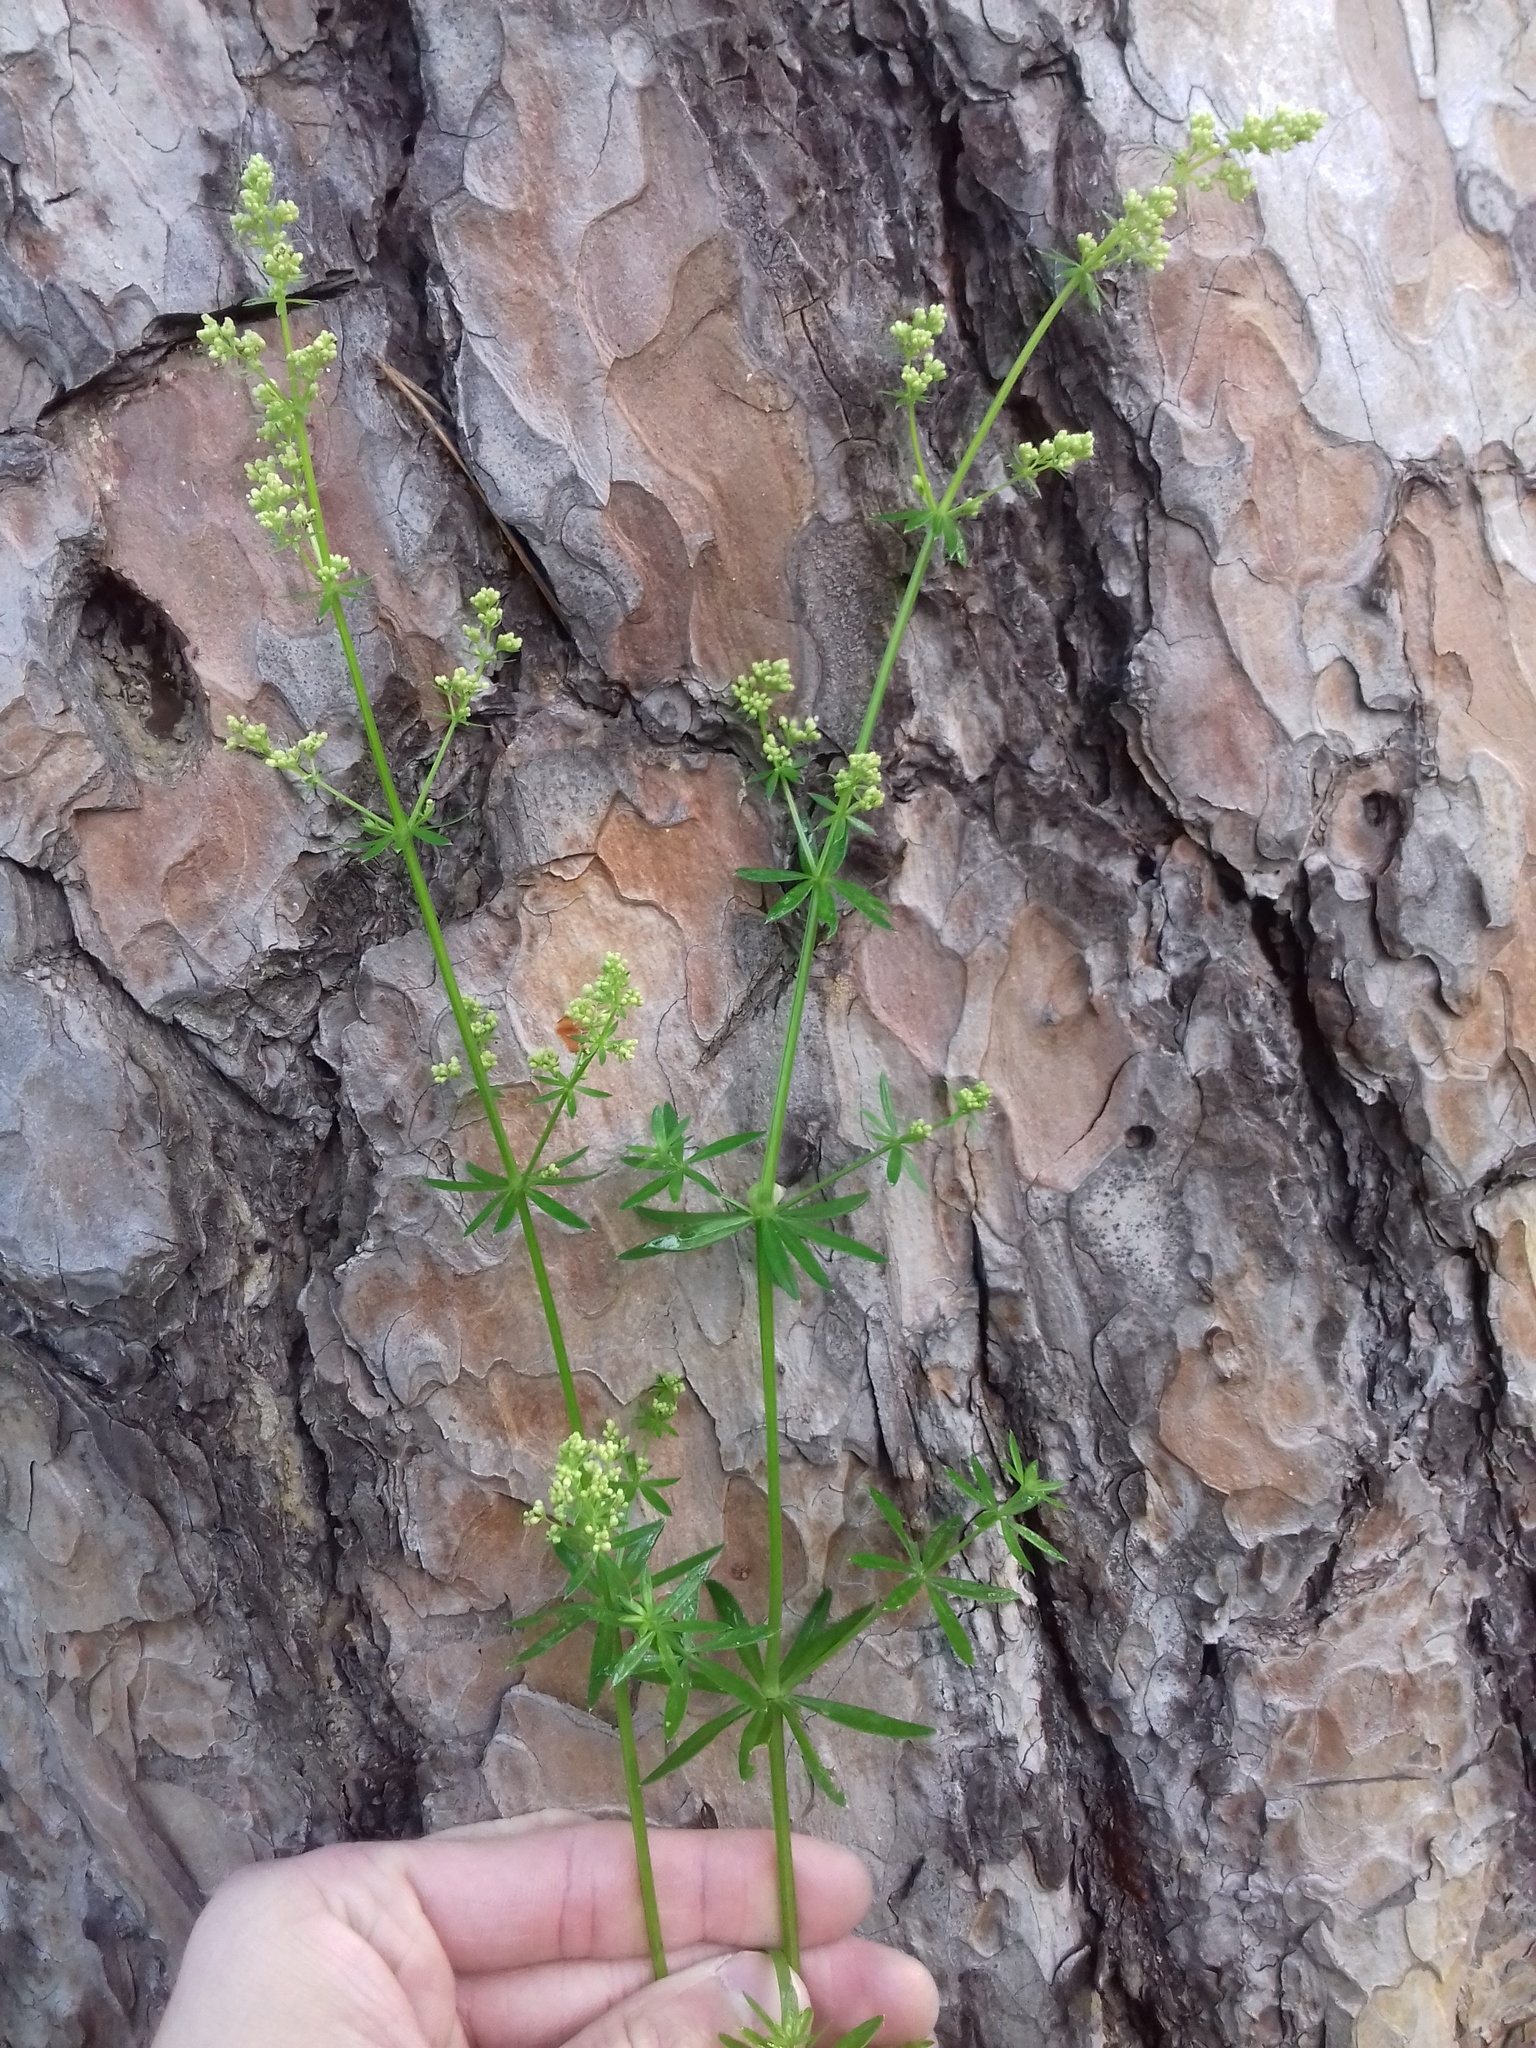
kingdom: Plantae
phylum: Tracheophyta
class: Magnoliopsida
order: Gentianales
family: Rubiaceae
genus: Galium
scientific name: Galium mollugo
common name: Hedge bedstraw
